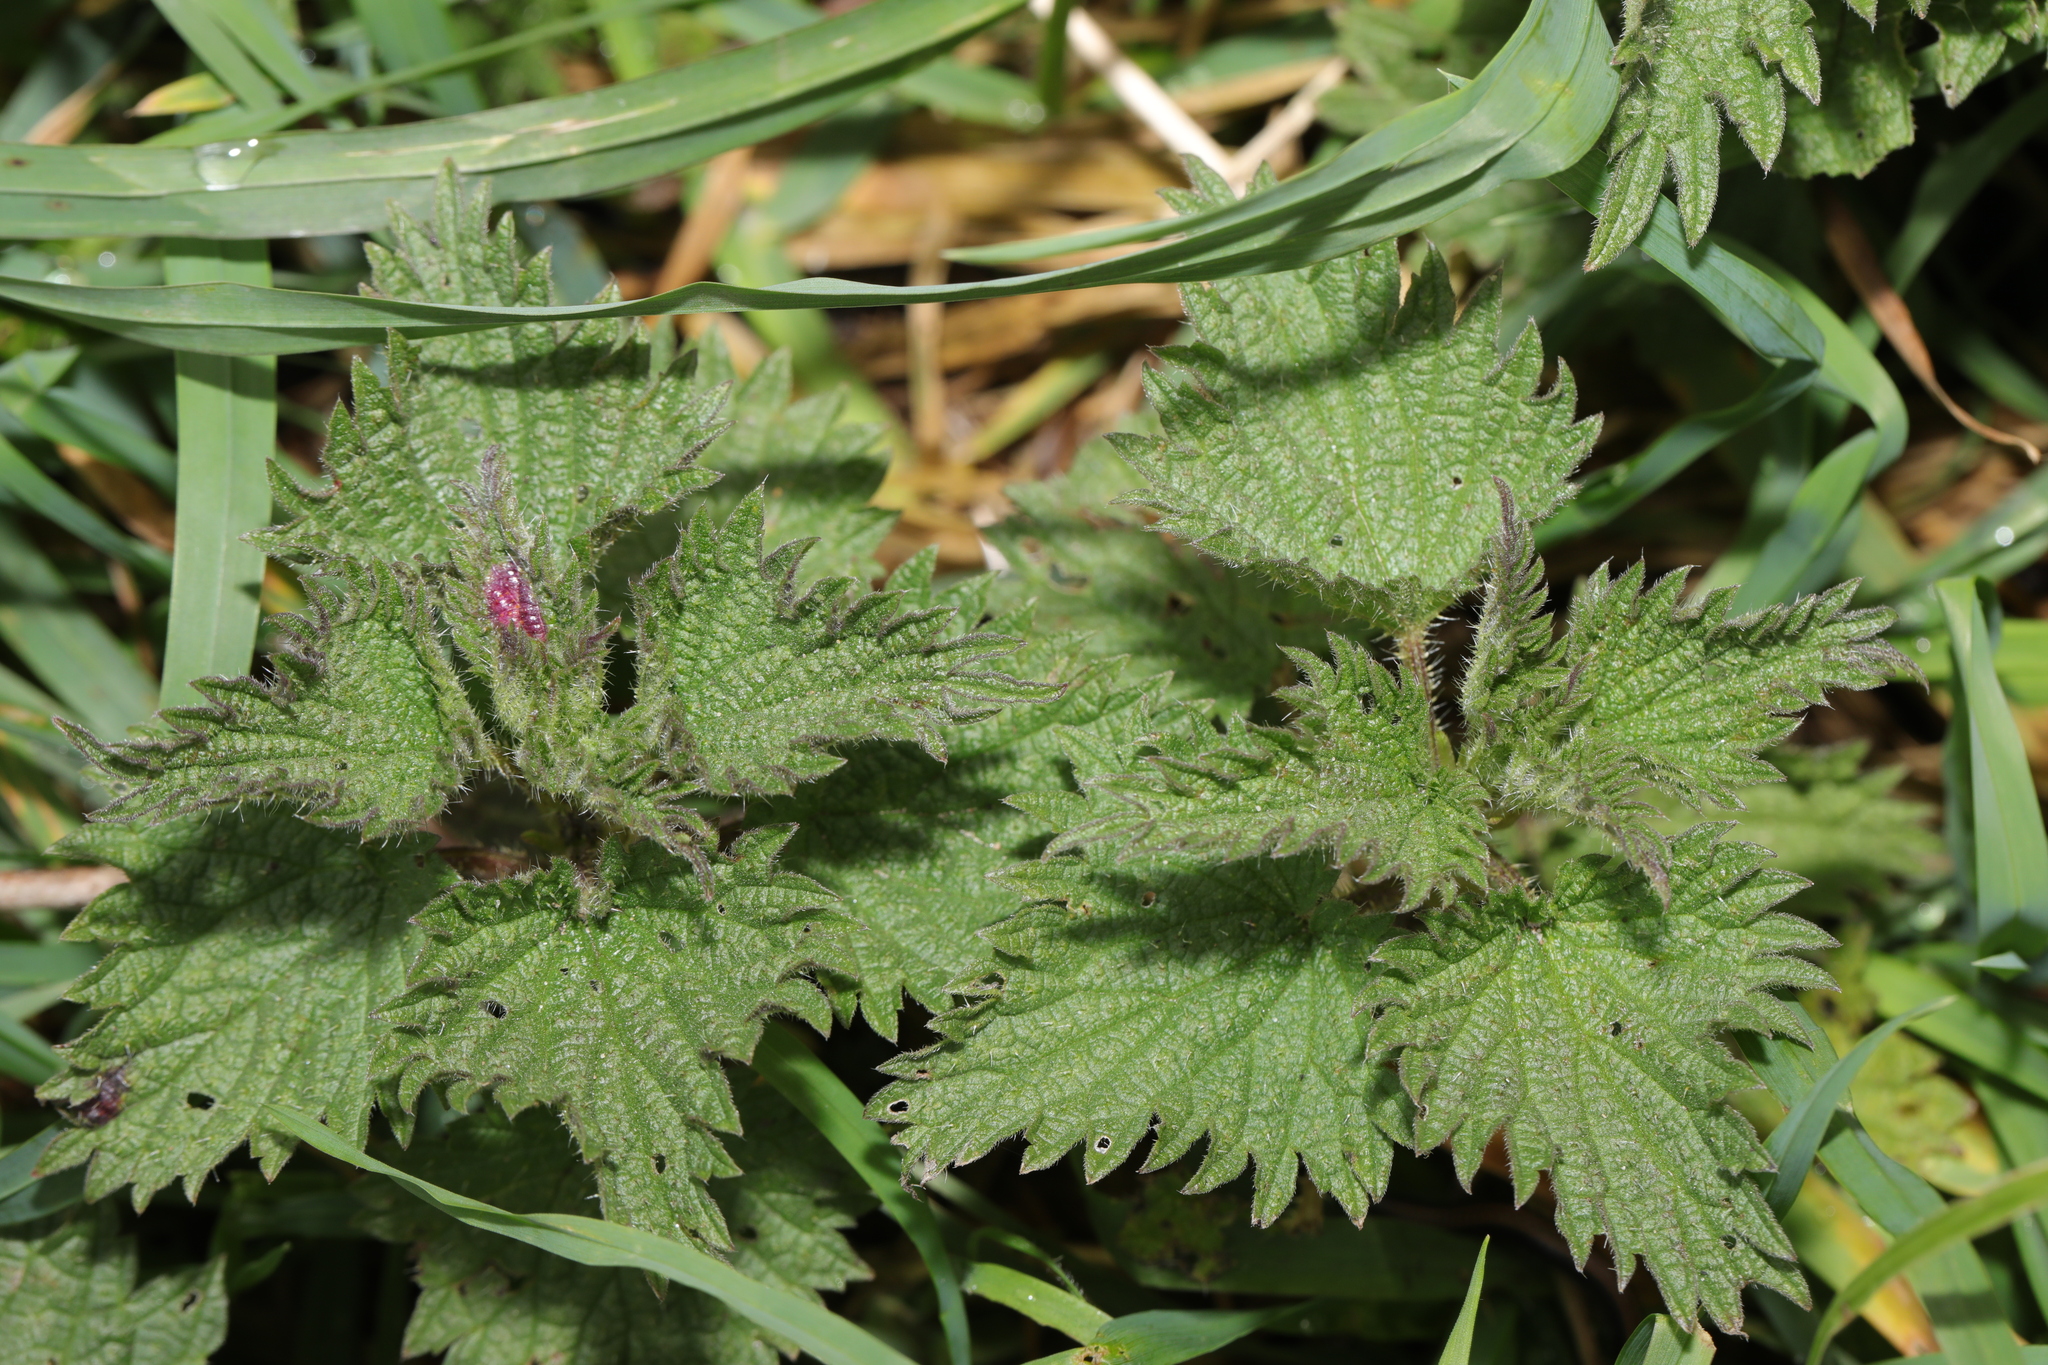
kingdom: Plantae
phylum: Tracheophyta
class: Magnoliopsida
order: Rosales
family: Urticaceae
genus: Urtica
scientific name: Urtica dioica
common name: Common nettle
